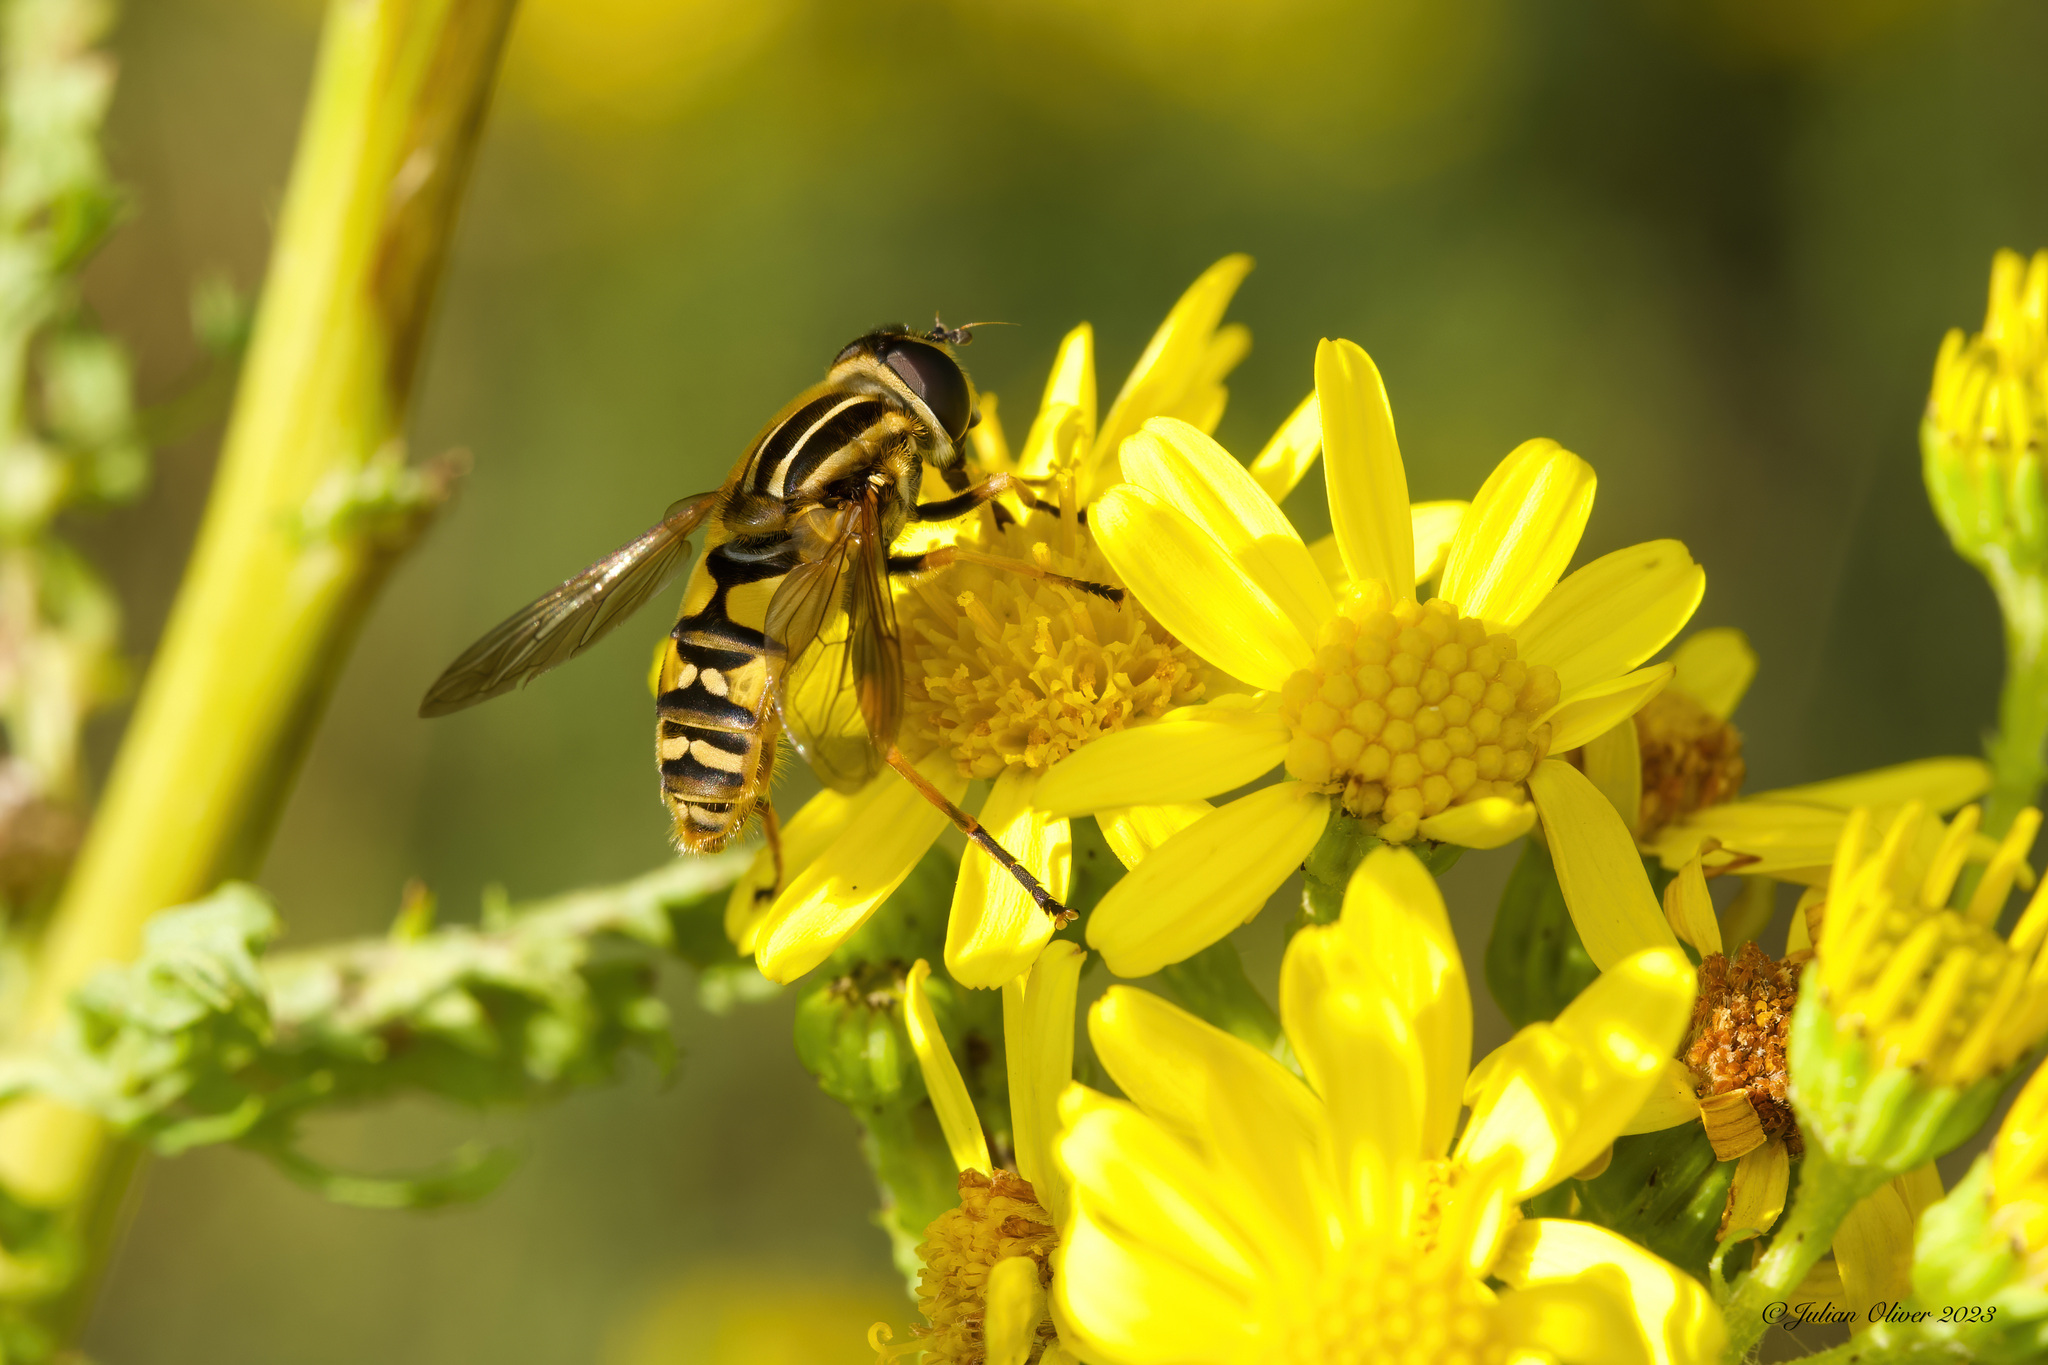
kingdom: Animalia
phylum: Arthropoda
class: Insecta
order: Diptera
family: Syrphidae
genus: Helophilus
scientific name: Helophilus pendulus
